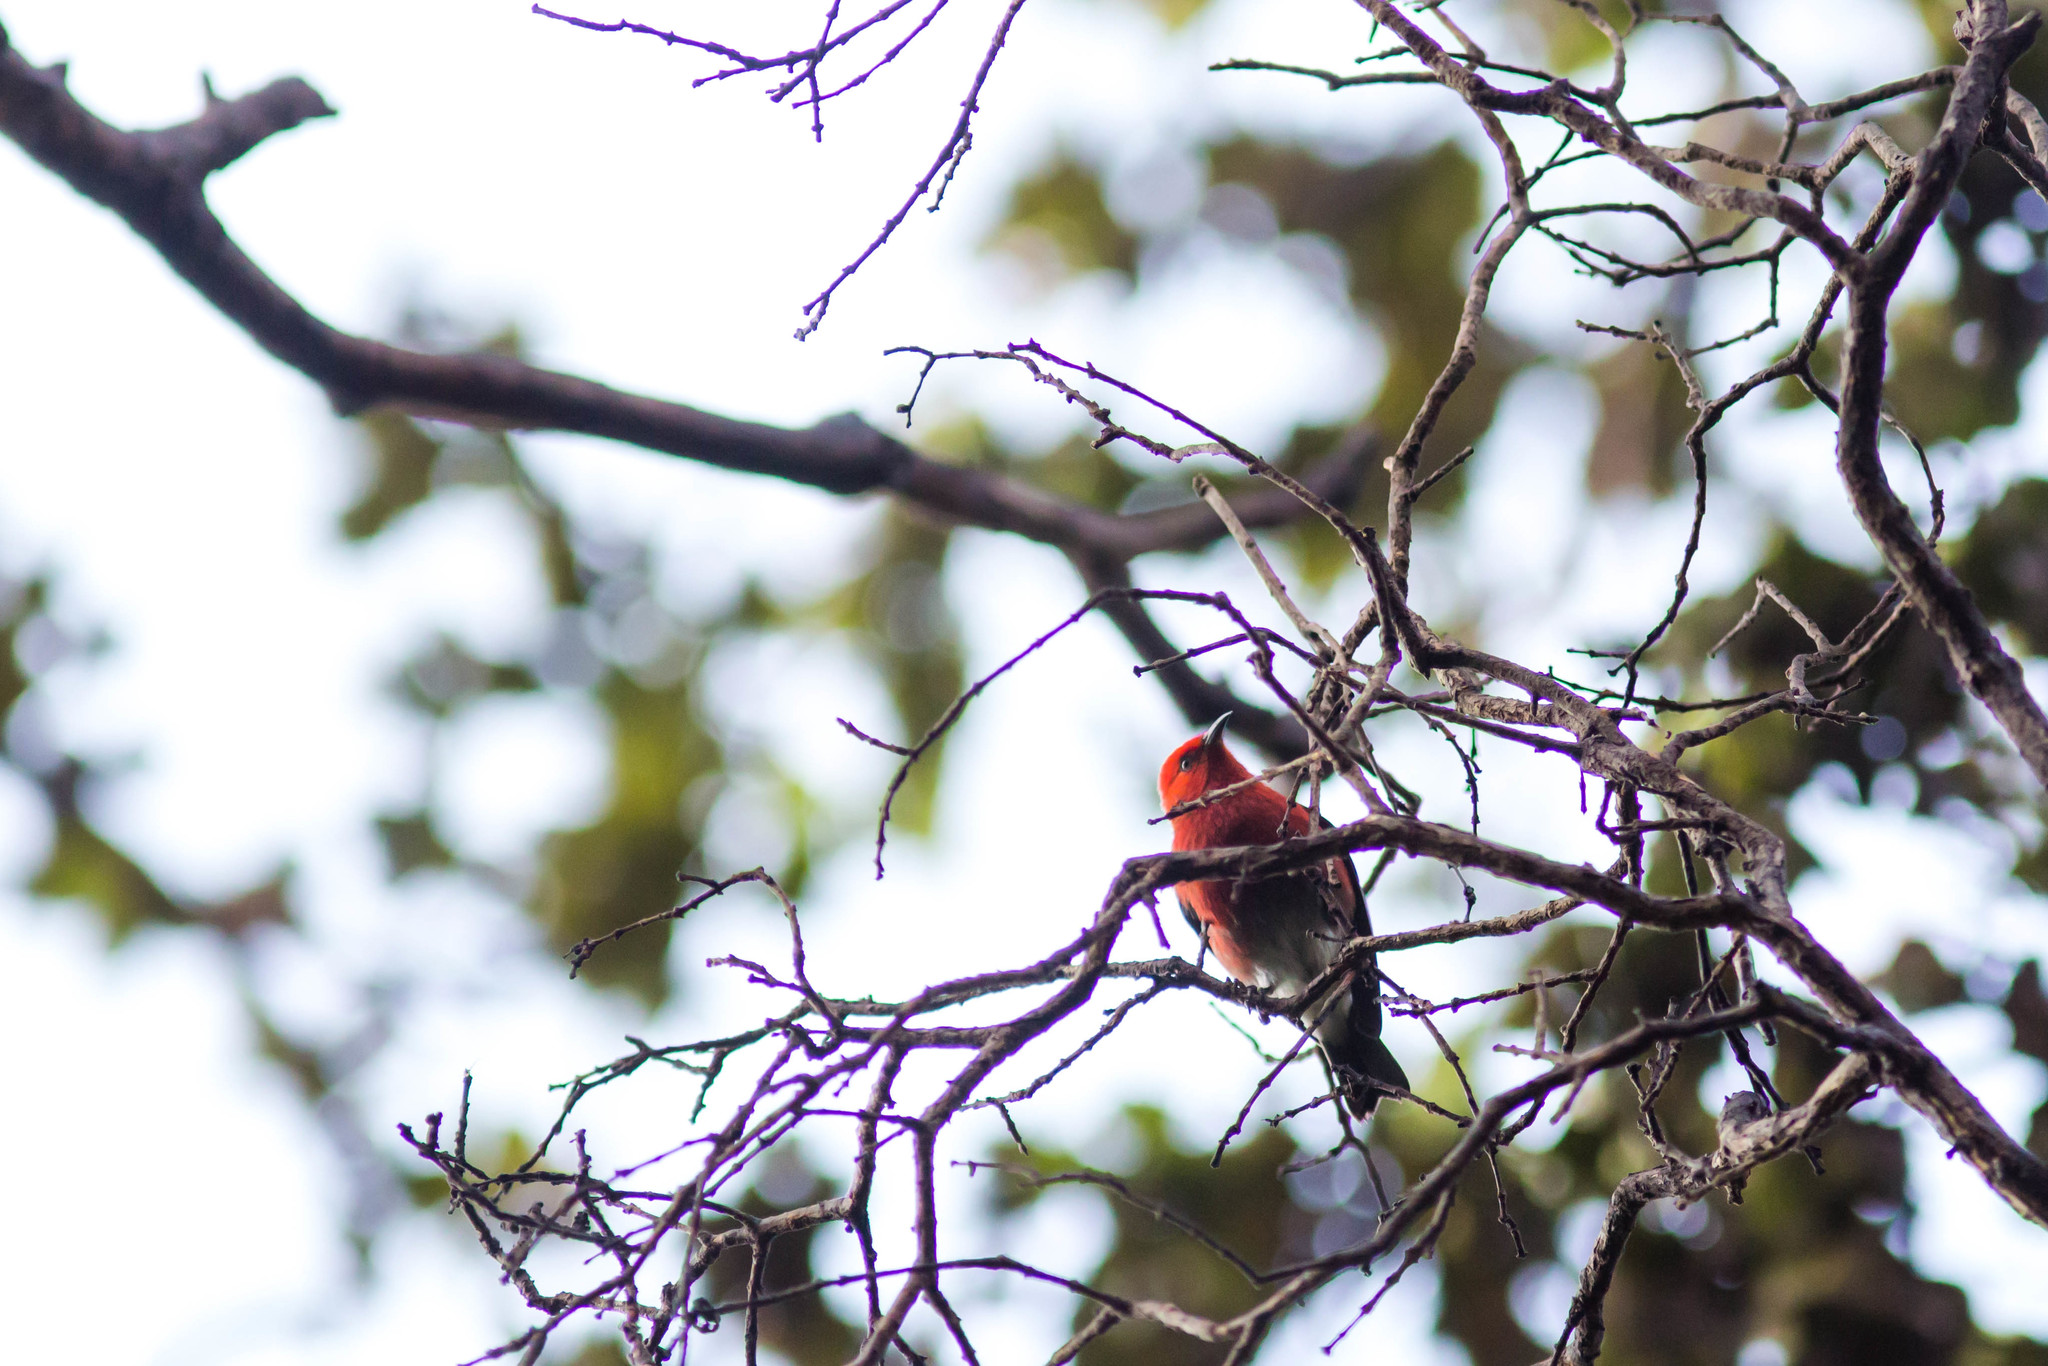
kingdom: Animalia
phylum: Chordata
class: Aves
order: Passeriformes
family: Fringillidae
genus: Himatione
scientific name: Himatione sanguinea
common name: Apapane
